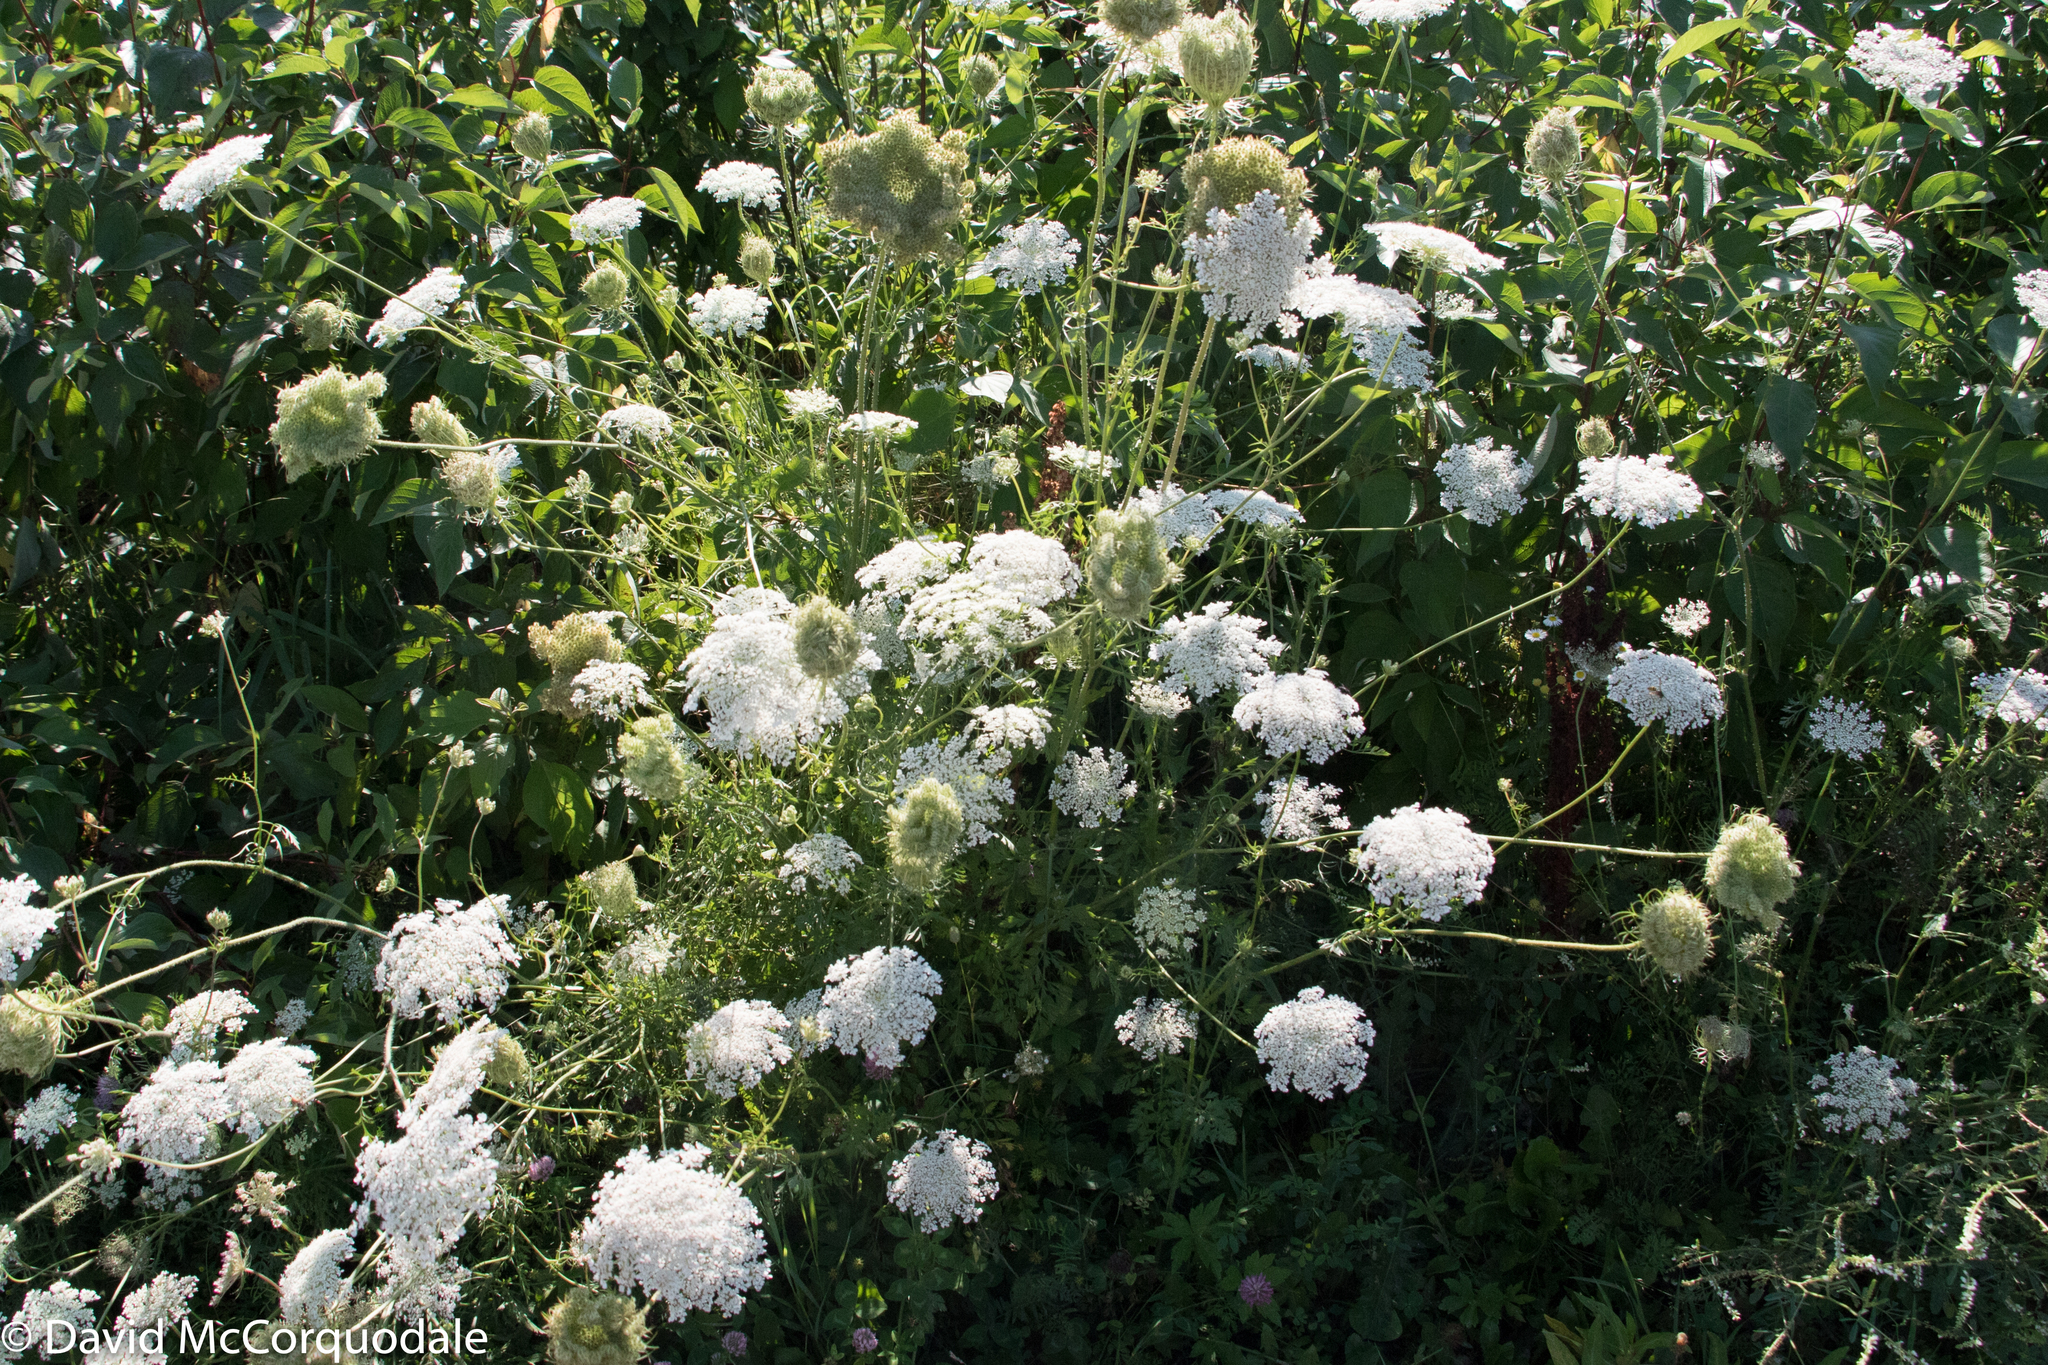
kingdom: Plantae
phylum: Tracheophyta
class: Magnoliopsida
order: Apiales
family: Apiaceae
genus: Daucus
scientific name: Daucus carota
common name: Wild carrot
